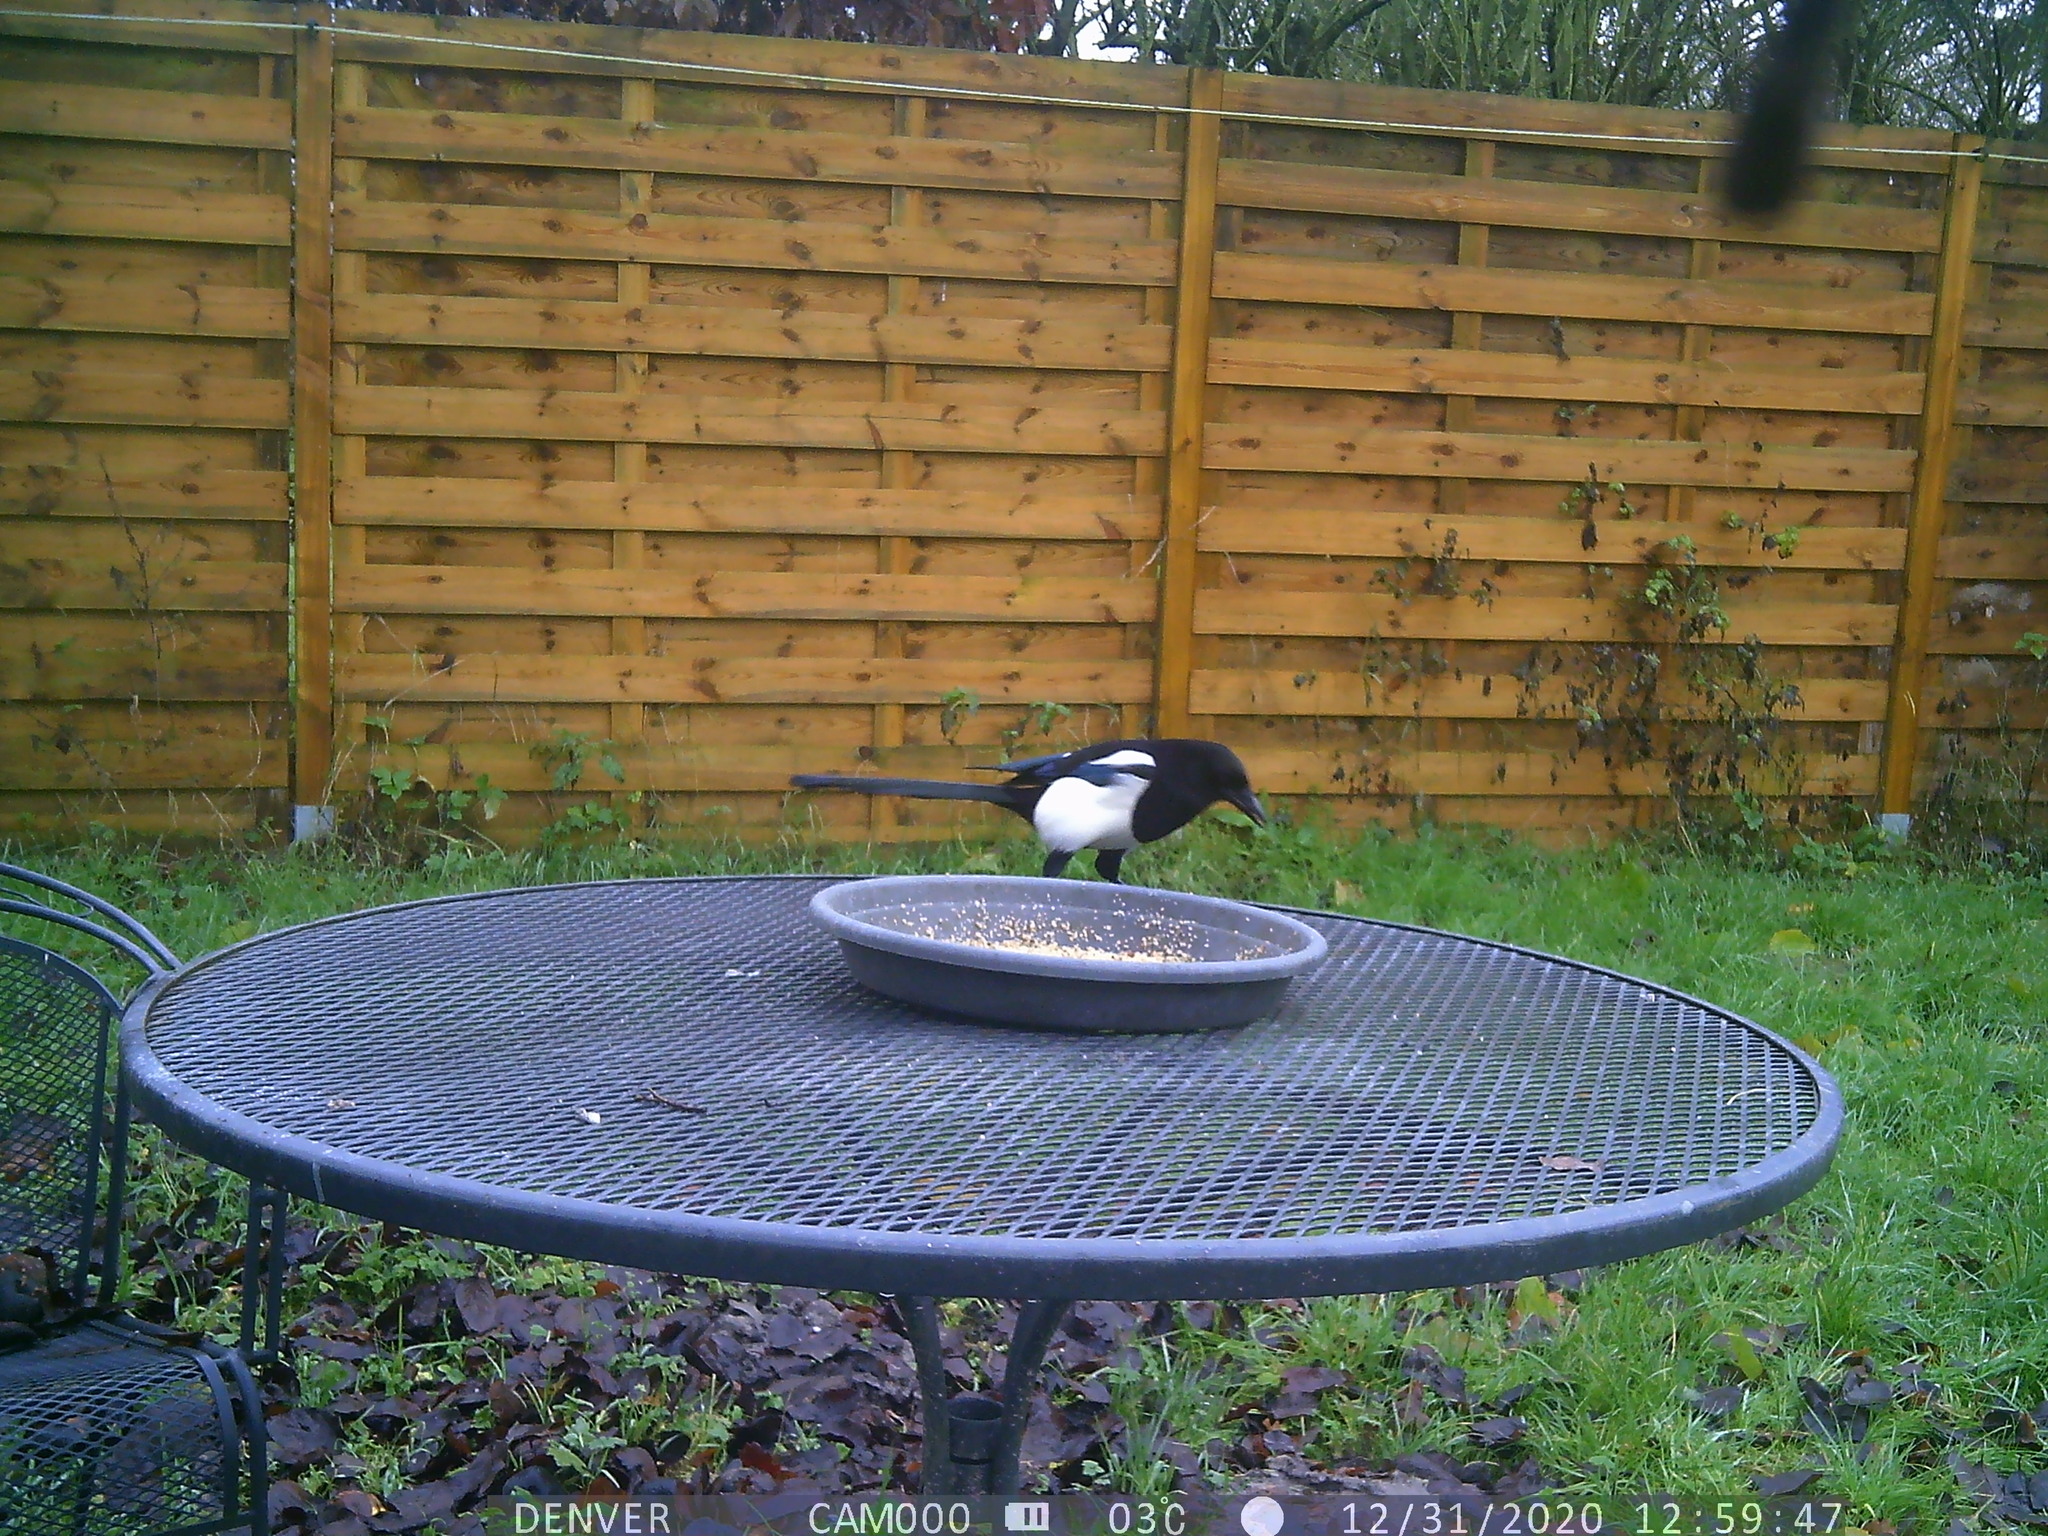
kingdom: Animalia
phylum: Chordata
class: Aves
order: Passeriformes
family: Corvidae
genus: Pica
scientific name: Pica pica
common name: Eurasian magpie
